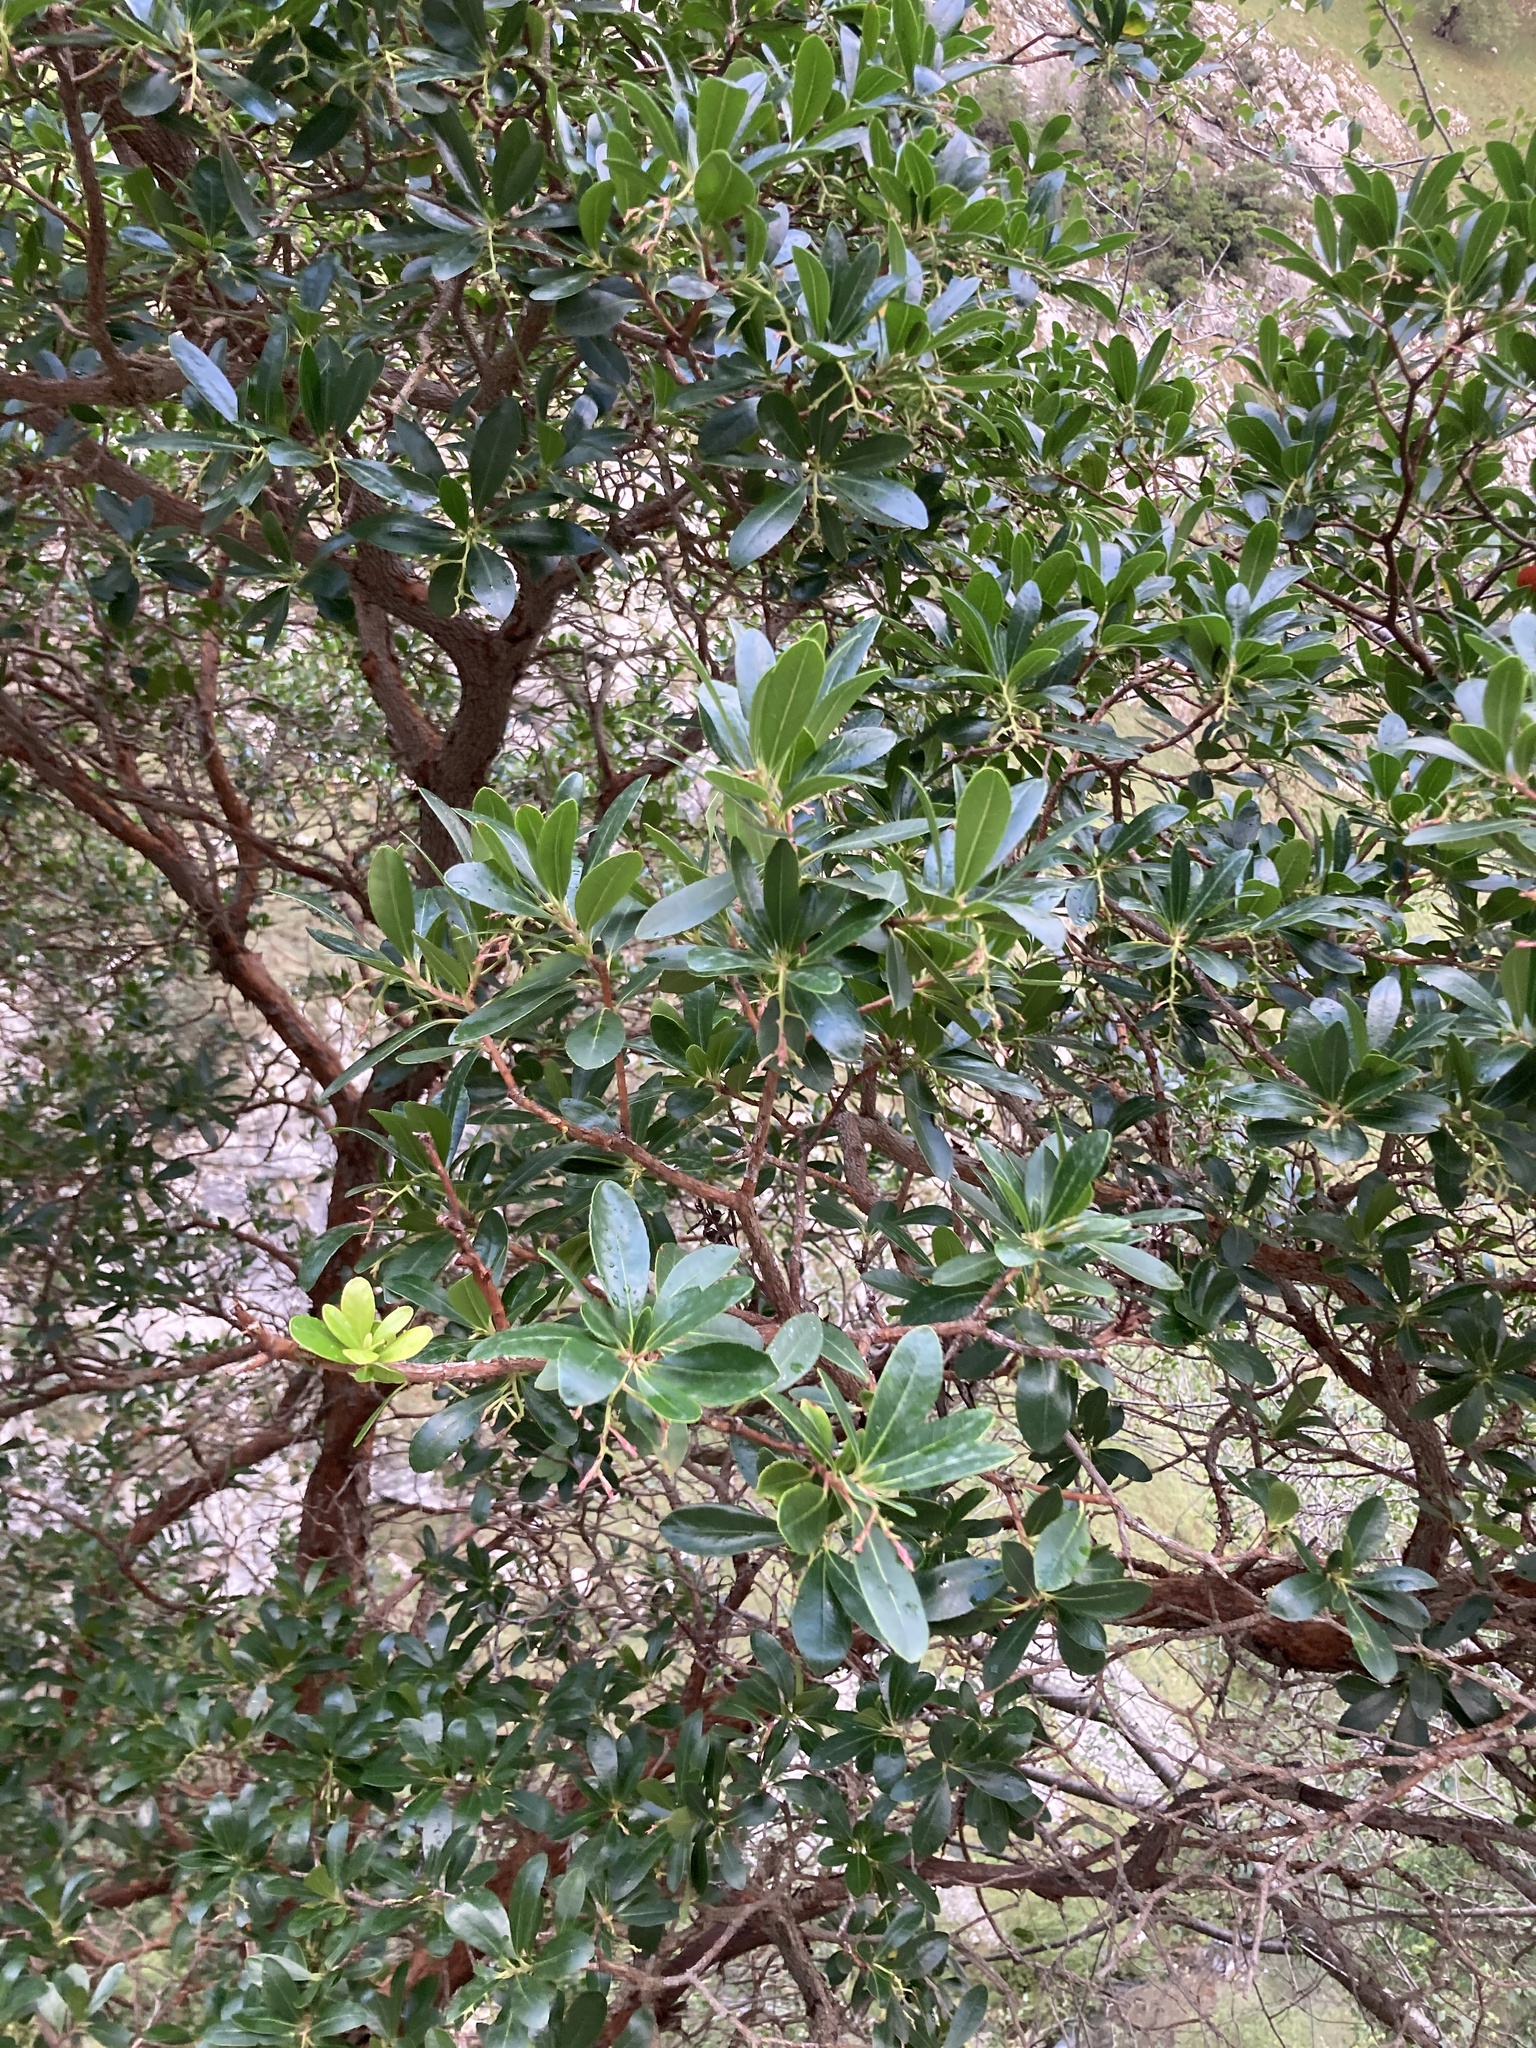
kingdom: Plantae
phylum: Tracheophyta
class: Magnoliopsida
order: Ericales
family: Ericaceae
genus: Arbutus
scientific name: Arbutus unedo
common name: Strawberry-tree
